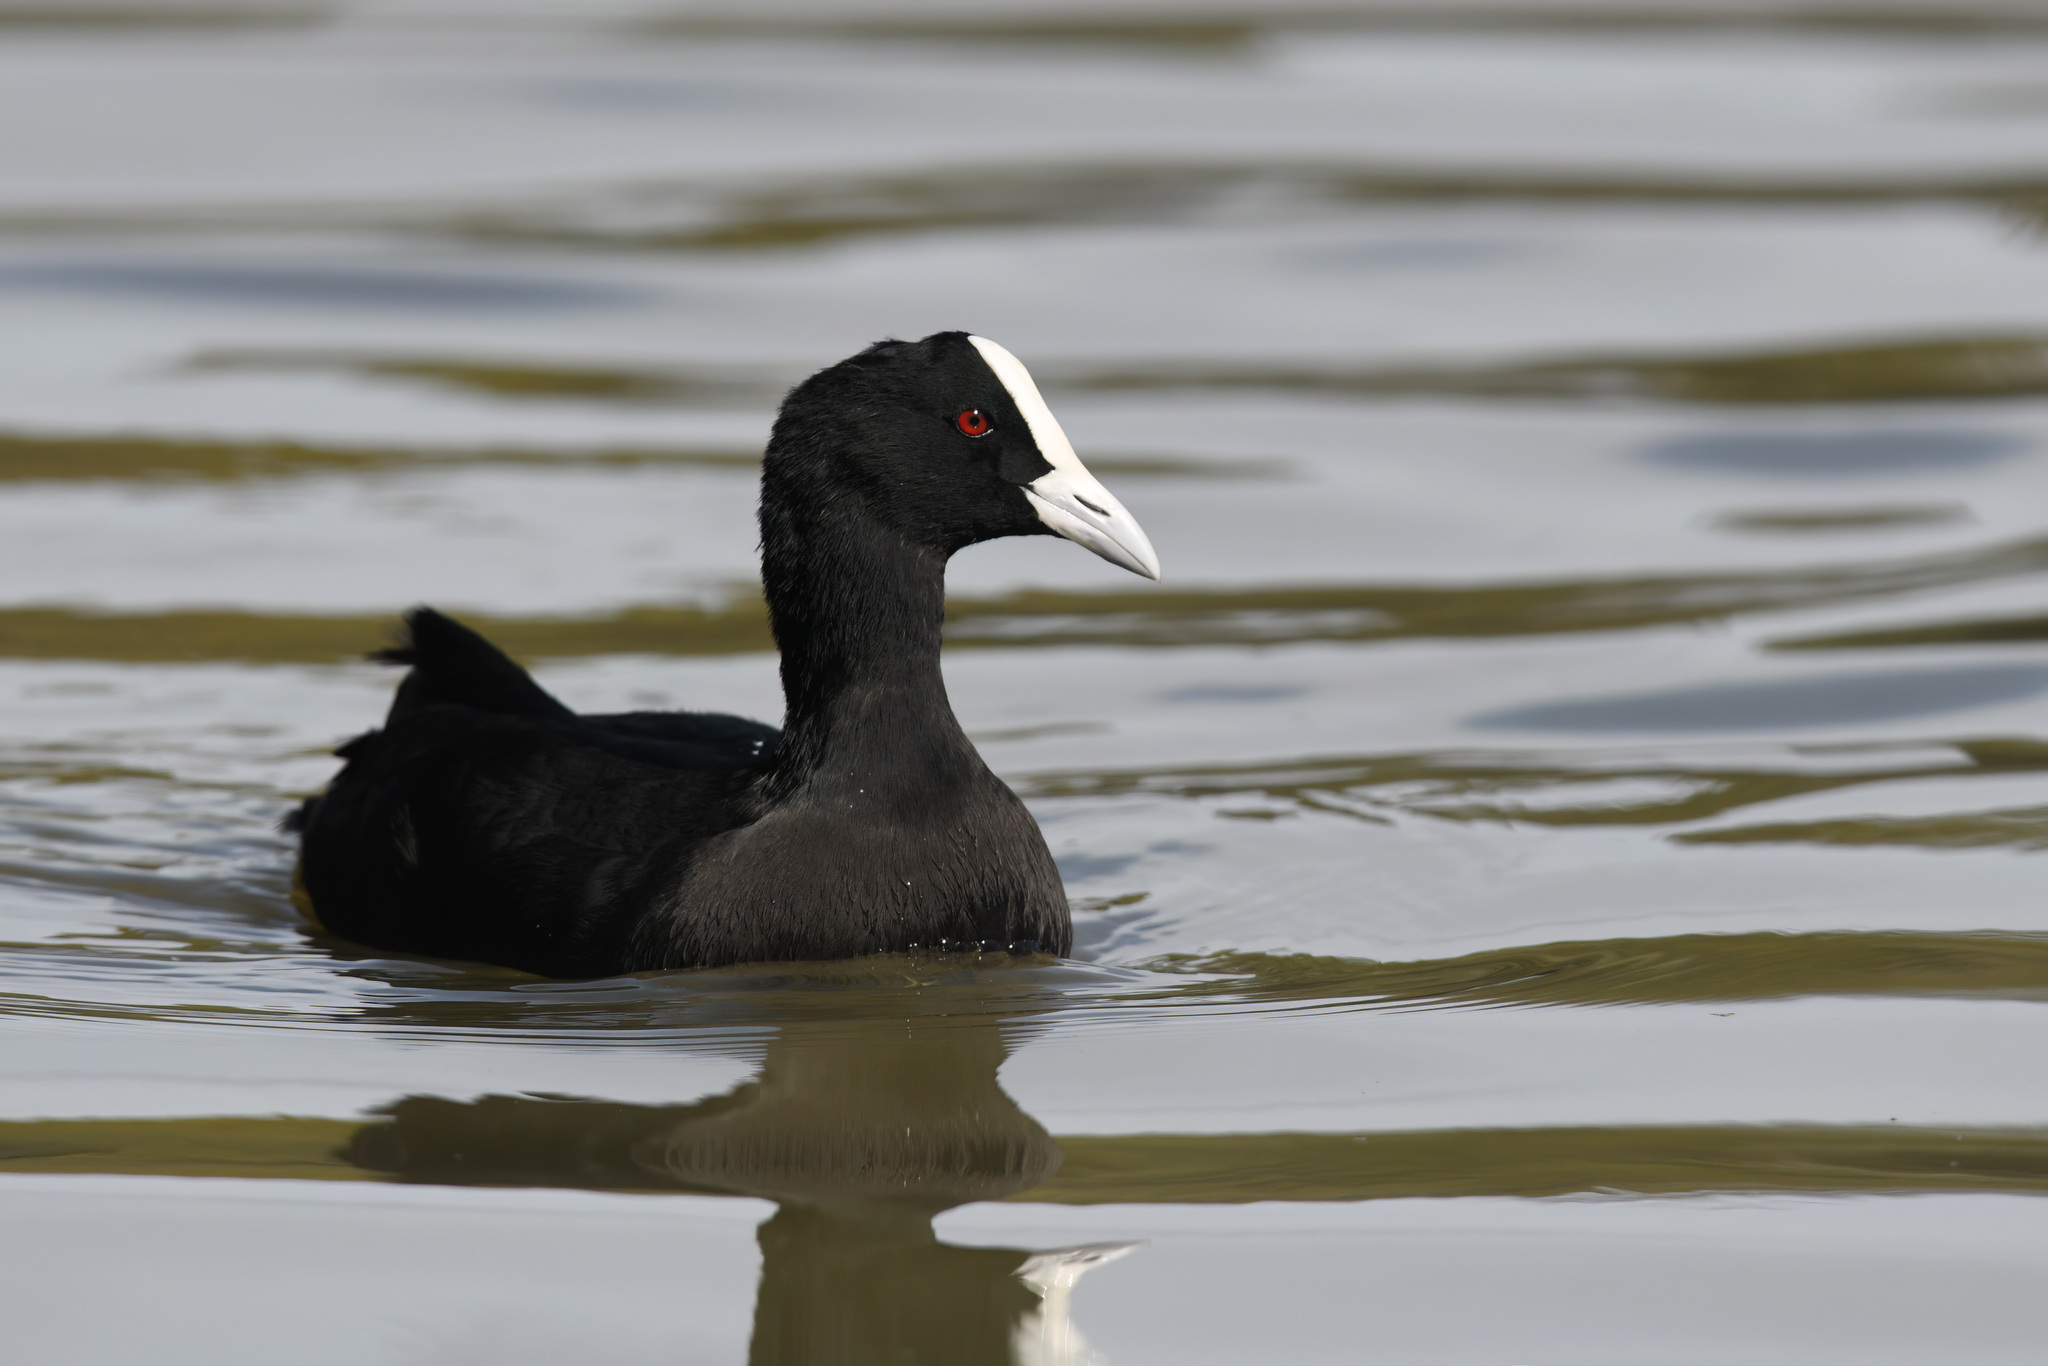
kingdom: Animalia
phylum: Chordata
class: Aves
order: Gruiformes
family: Rallidae
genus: Fulica
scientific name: Fulica atra
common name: Eurasian coot
